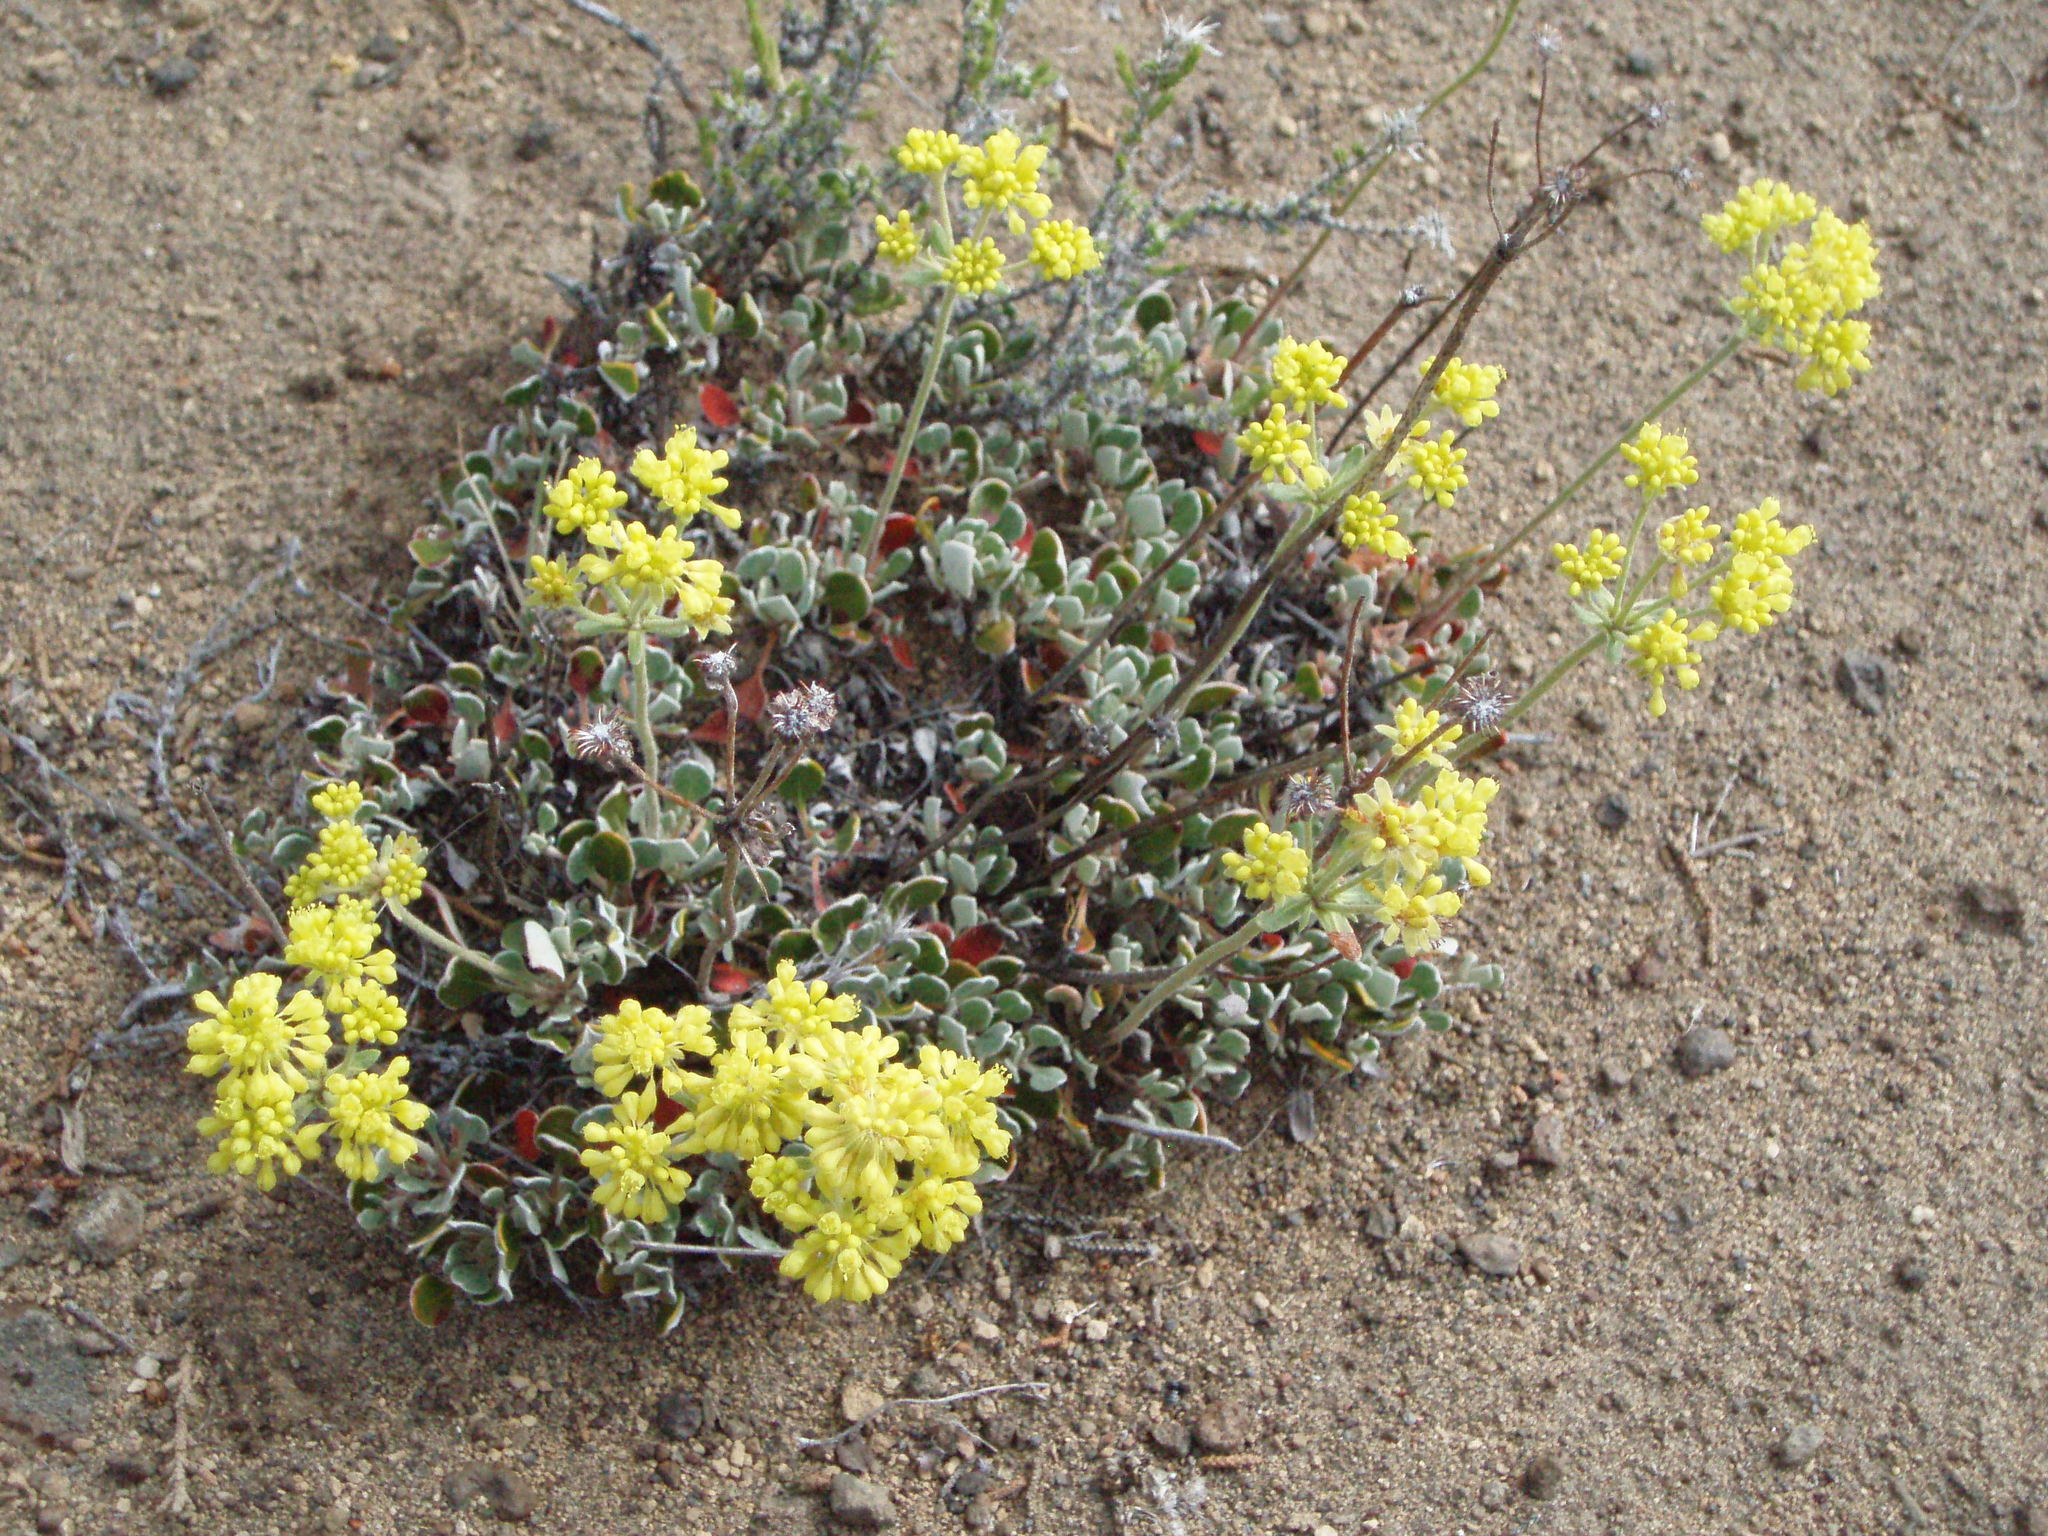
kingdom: Plantae
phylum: Tracheophyta
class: Magnoliopsida
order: Caryophyllales
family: Polygonaceae
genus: Eriogonum
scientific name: Eriogonum strictum
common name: Blue mountain buckwheat
